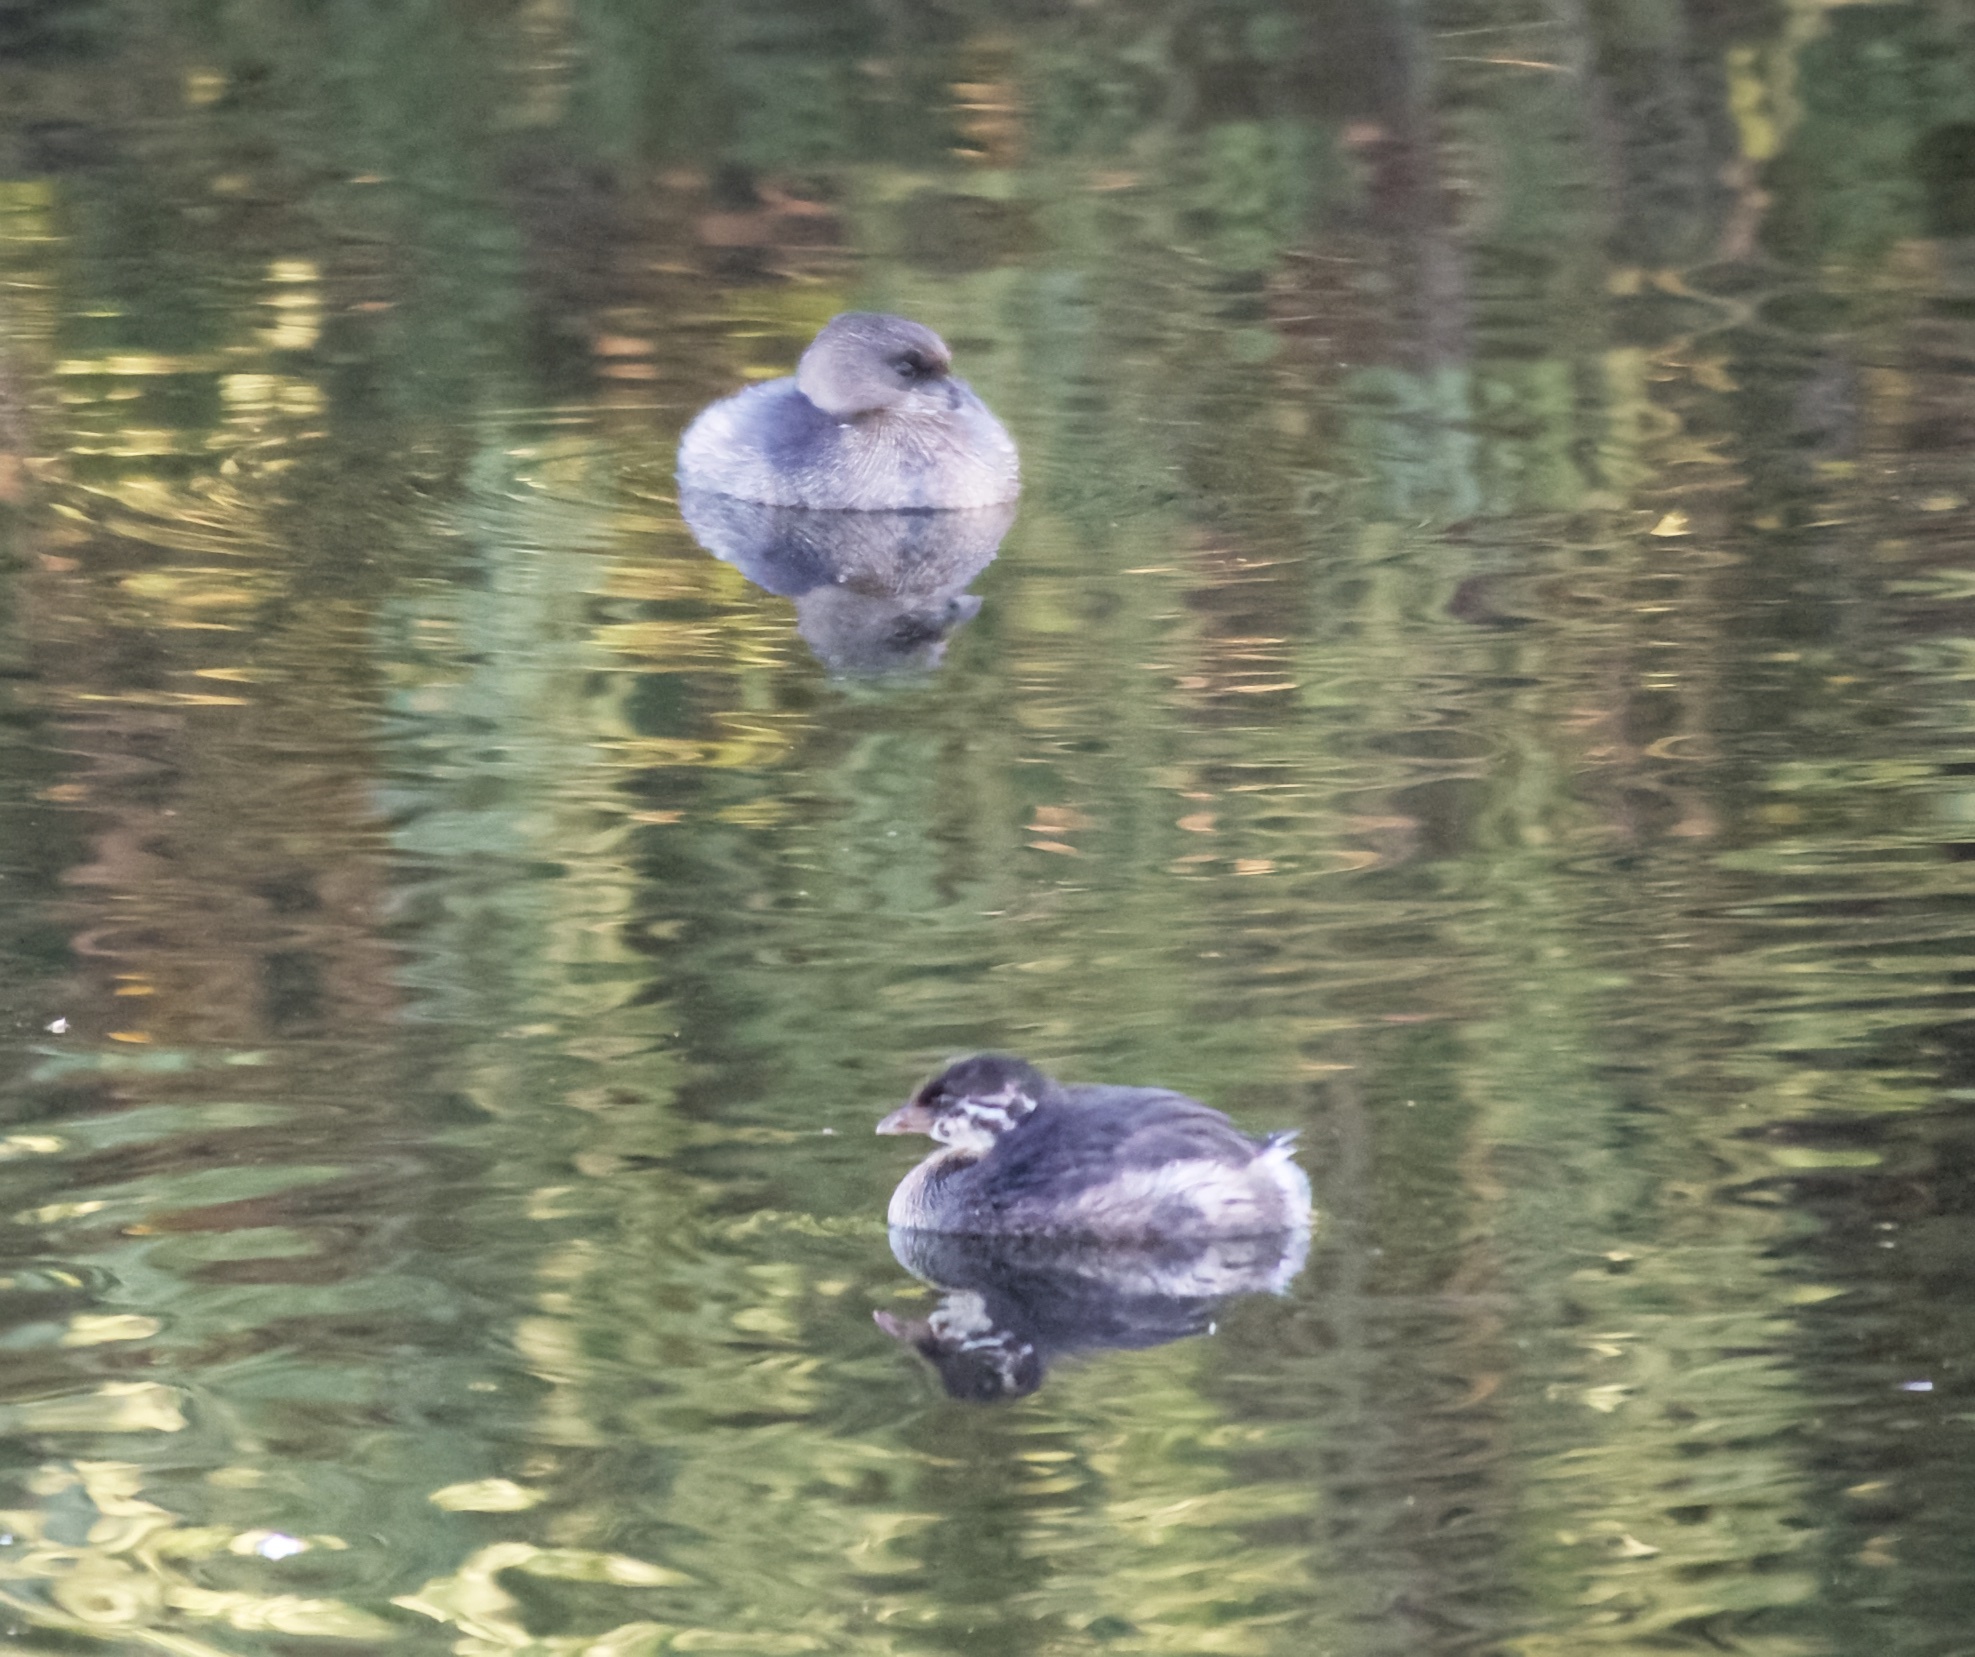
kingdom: Animalia
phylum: Chordata
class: Aves
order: Podicipediformes
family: Podicipedidae
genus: Podilymbus
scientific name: Podilymbus podiceps
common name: Pied-billed grebe
